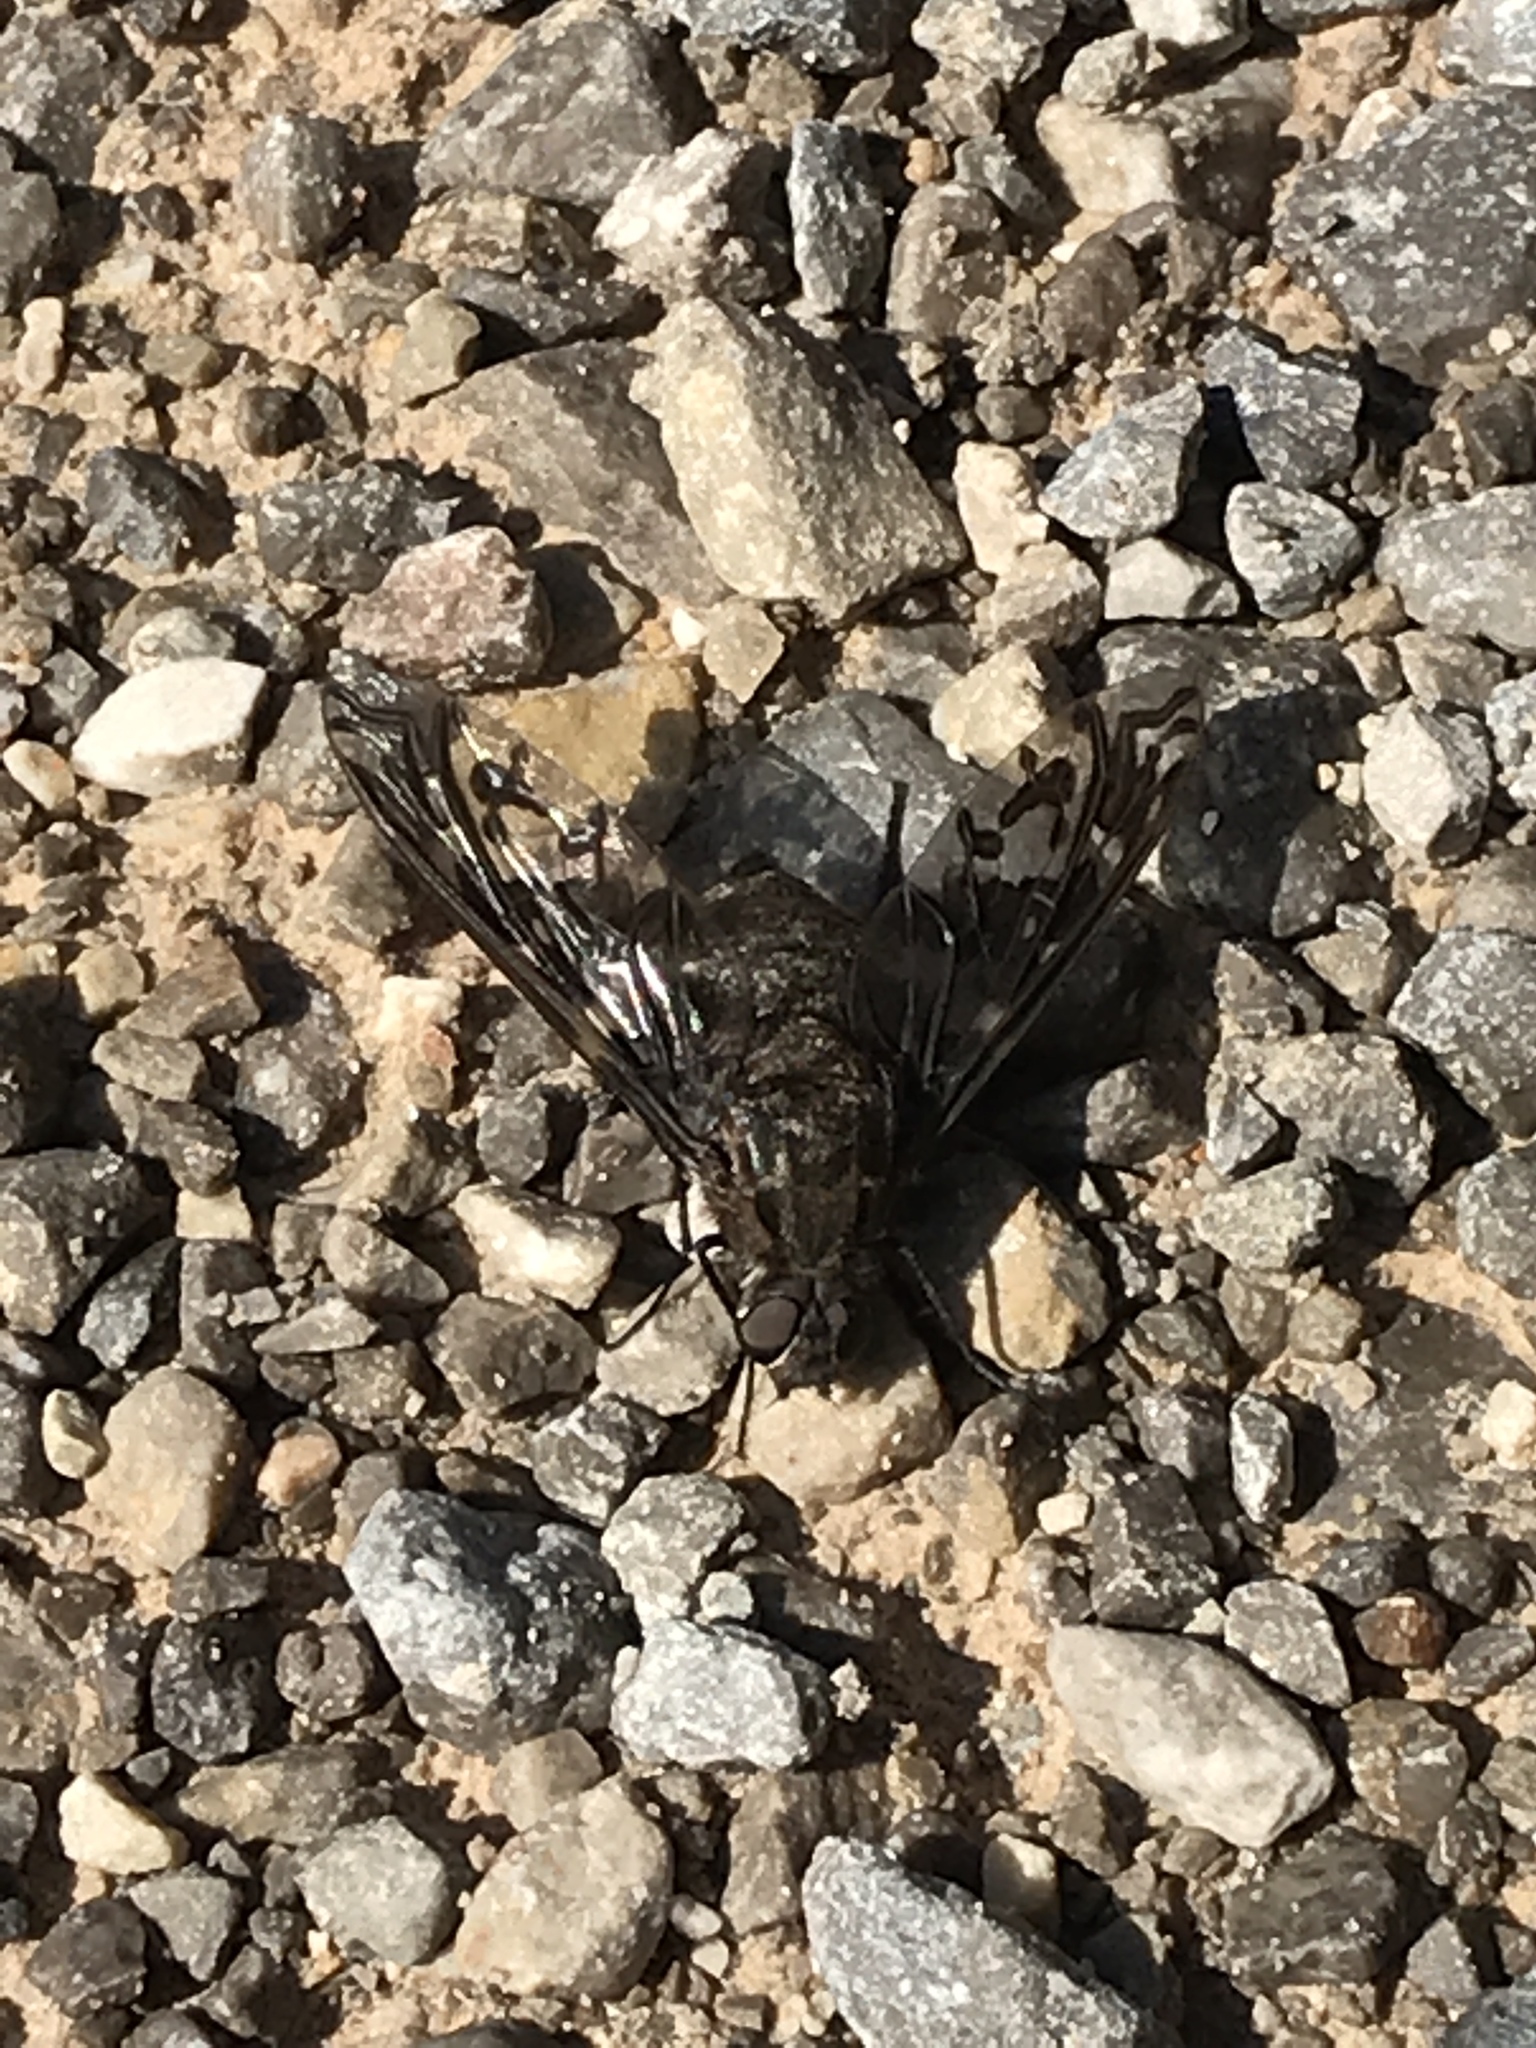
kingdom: Animalia
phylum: Arthropoda
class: Insecta
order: Diptera
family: Bombyliidae
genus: Xenox
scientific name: Xenox tigrinus
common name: Tiger bee fly
